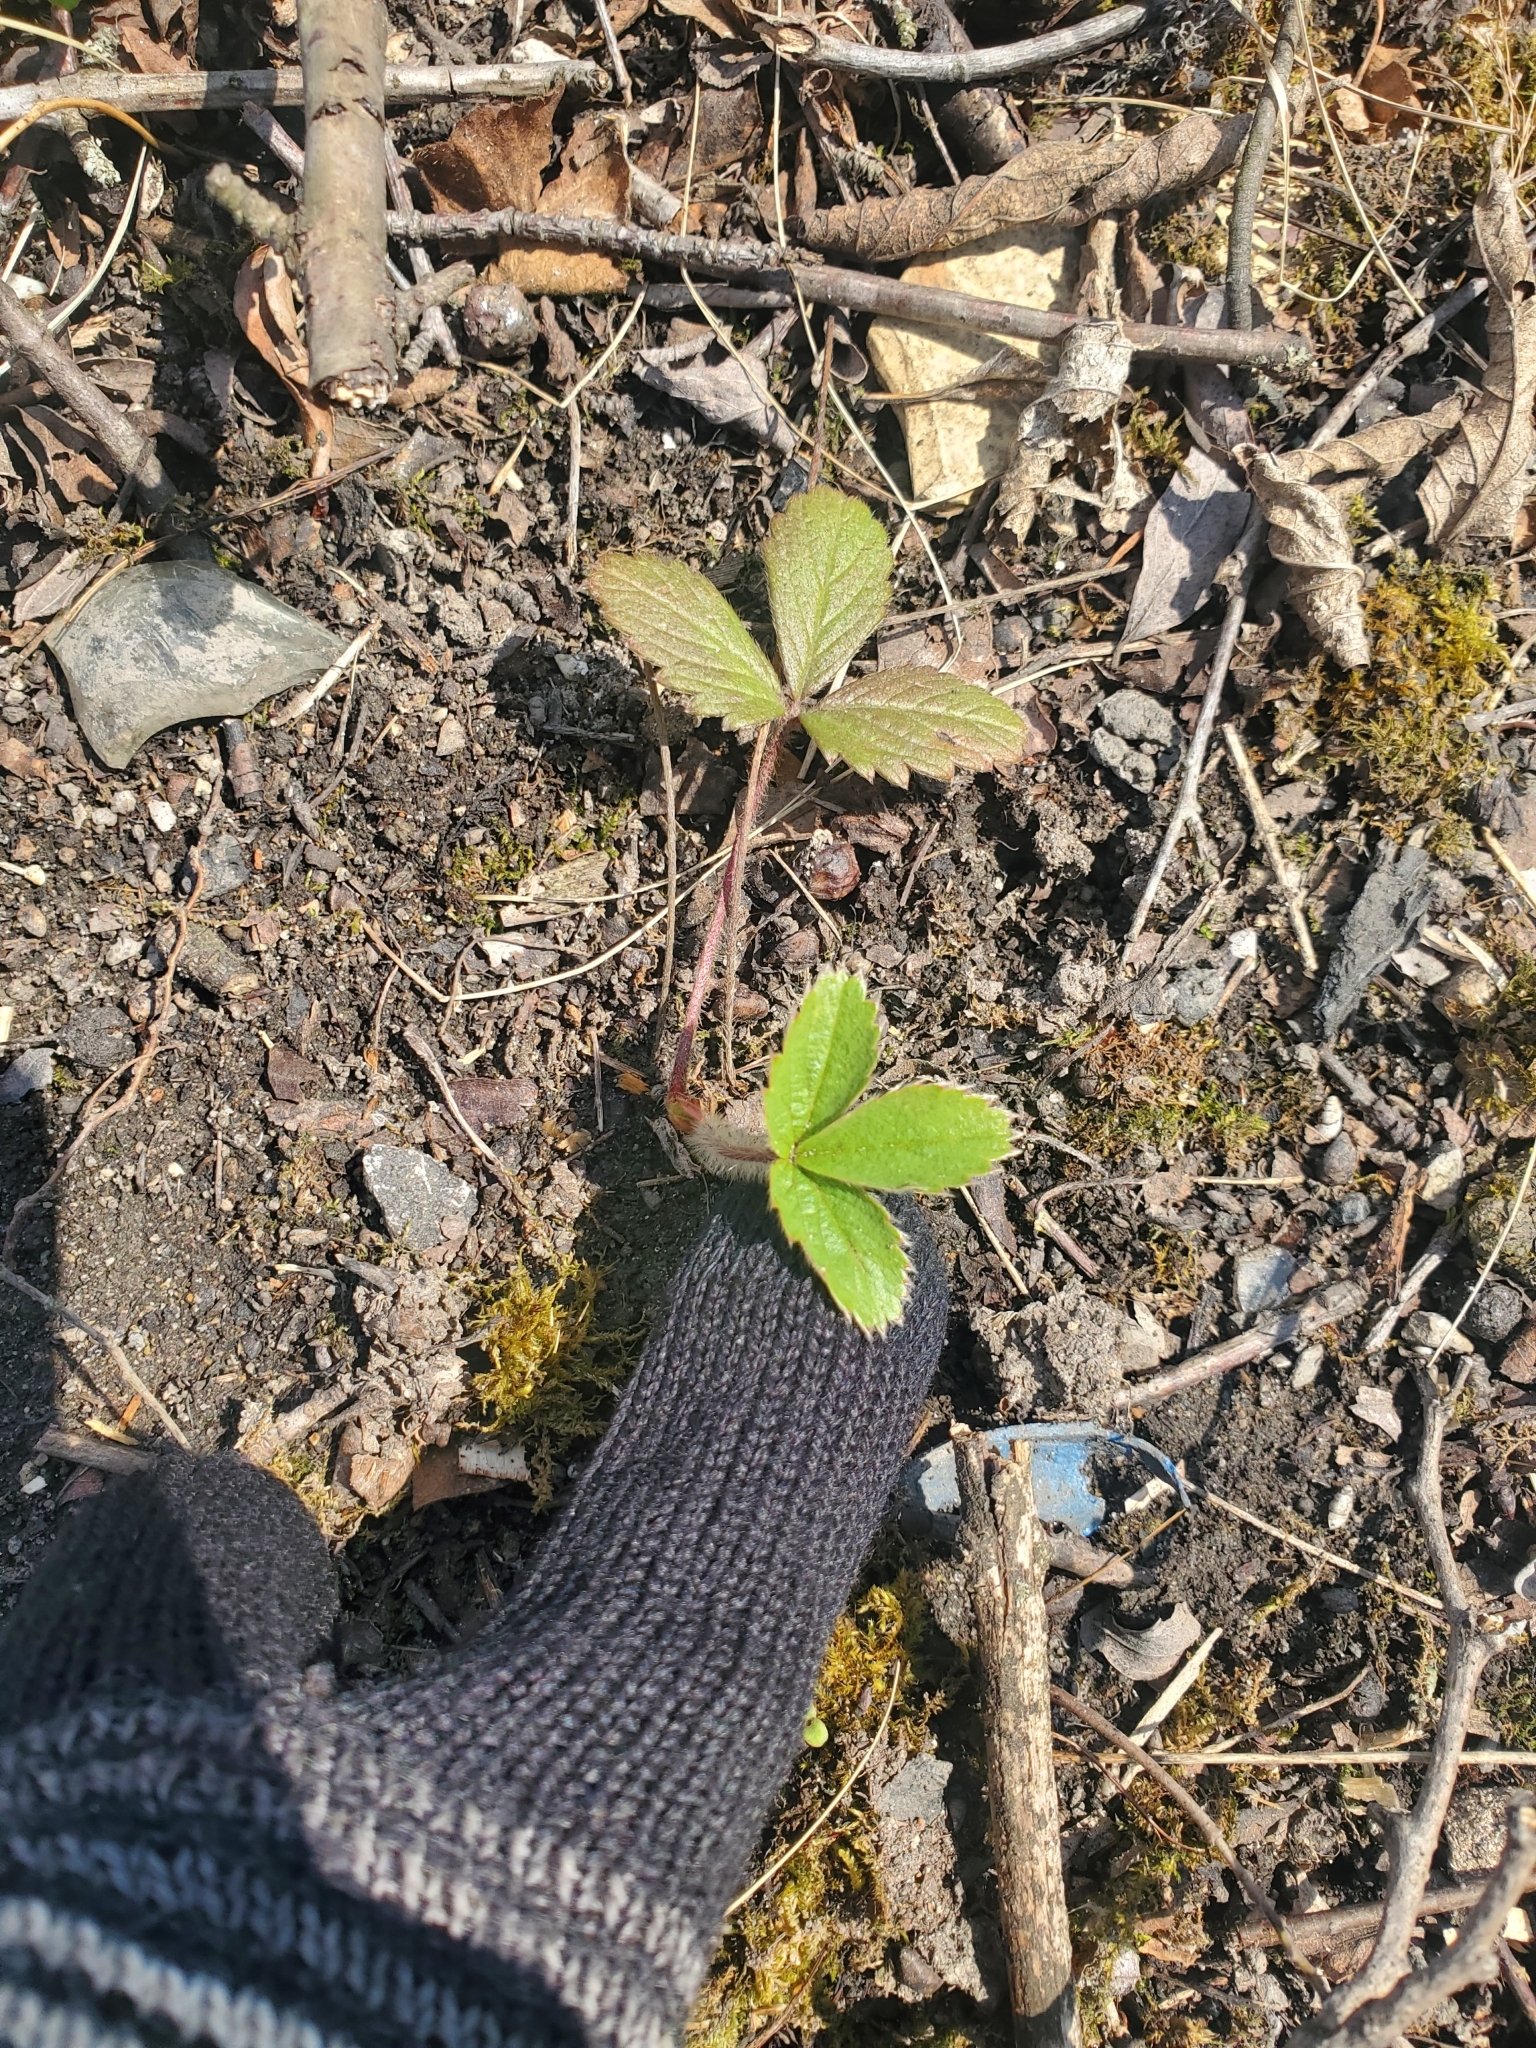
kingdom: Plantae
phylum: Tracheophyta
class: Magnoliopsida
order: Rosales
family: Rosaceae
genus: Fragaria
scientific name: Fragaria virginiana
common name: Thickleaved wild strawberry
